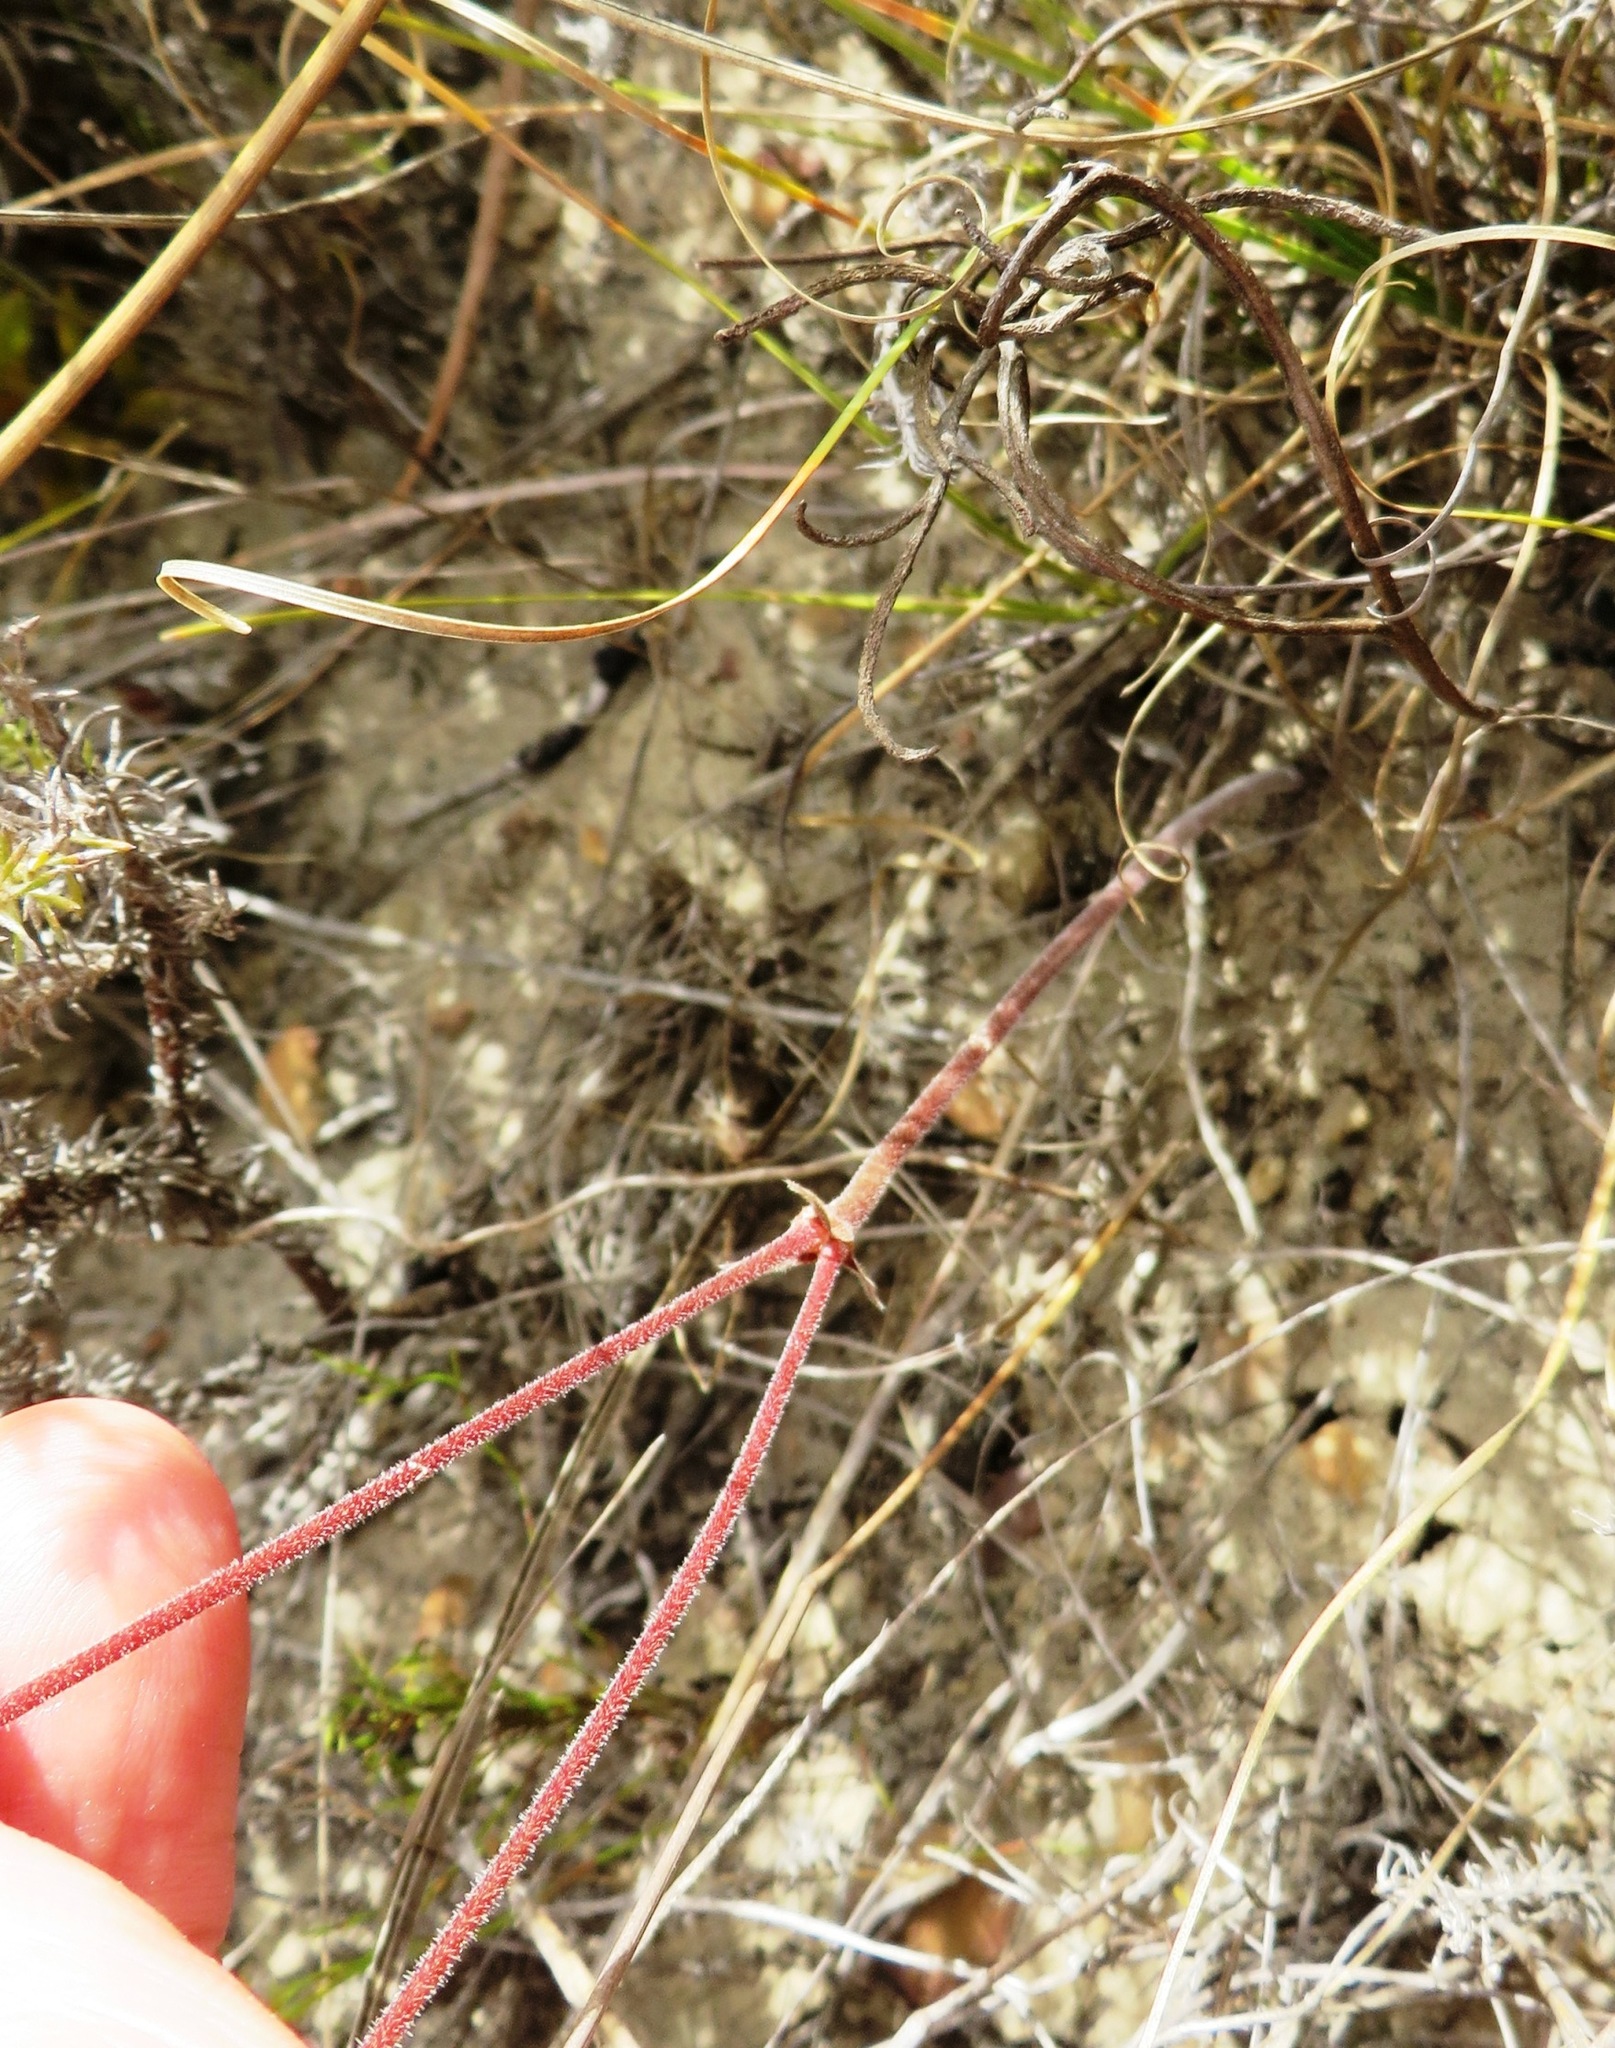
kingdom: Plantae
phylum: Tracheophyta
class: Magnoliopsida
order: Geraniales
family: Geraniaceae
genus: Pelargonium
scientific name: Pelargonium dipetalum
